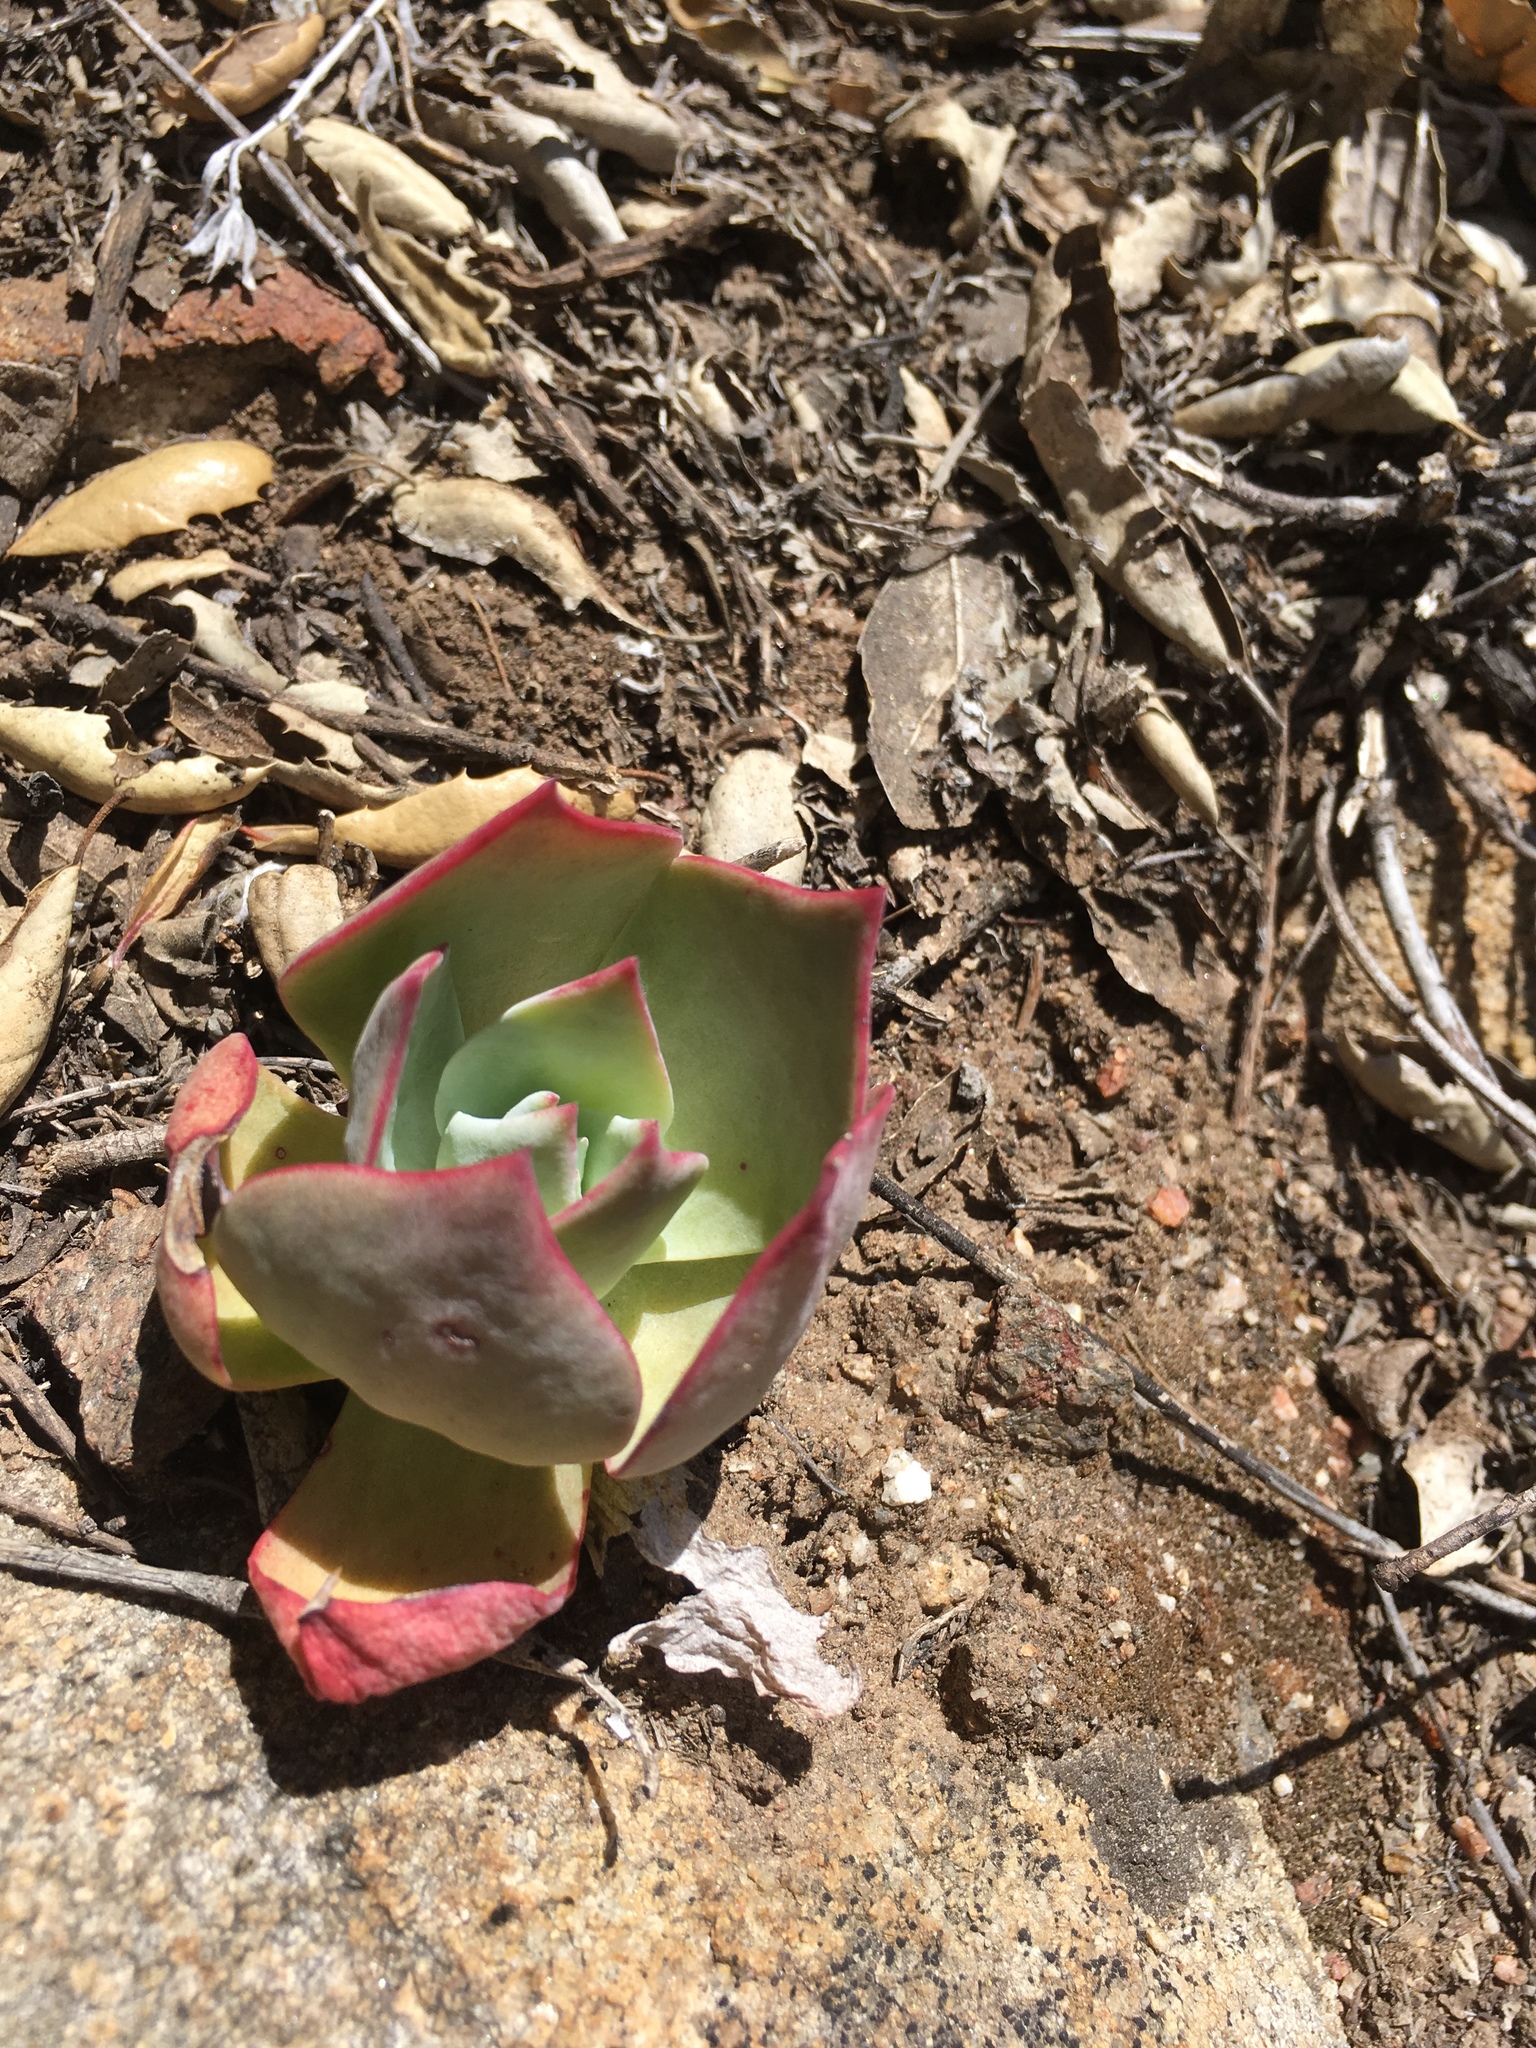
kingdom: Plantae
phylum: Tracheophyta
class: Magnoliopsida
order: Saxifragales
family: Crassulaceae
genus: Dudleya
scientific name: Dudleya pulverulenta
